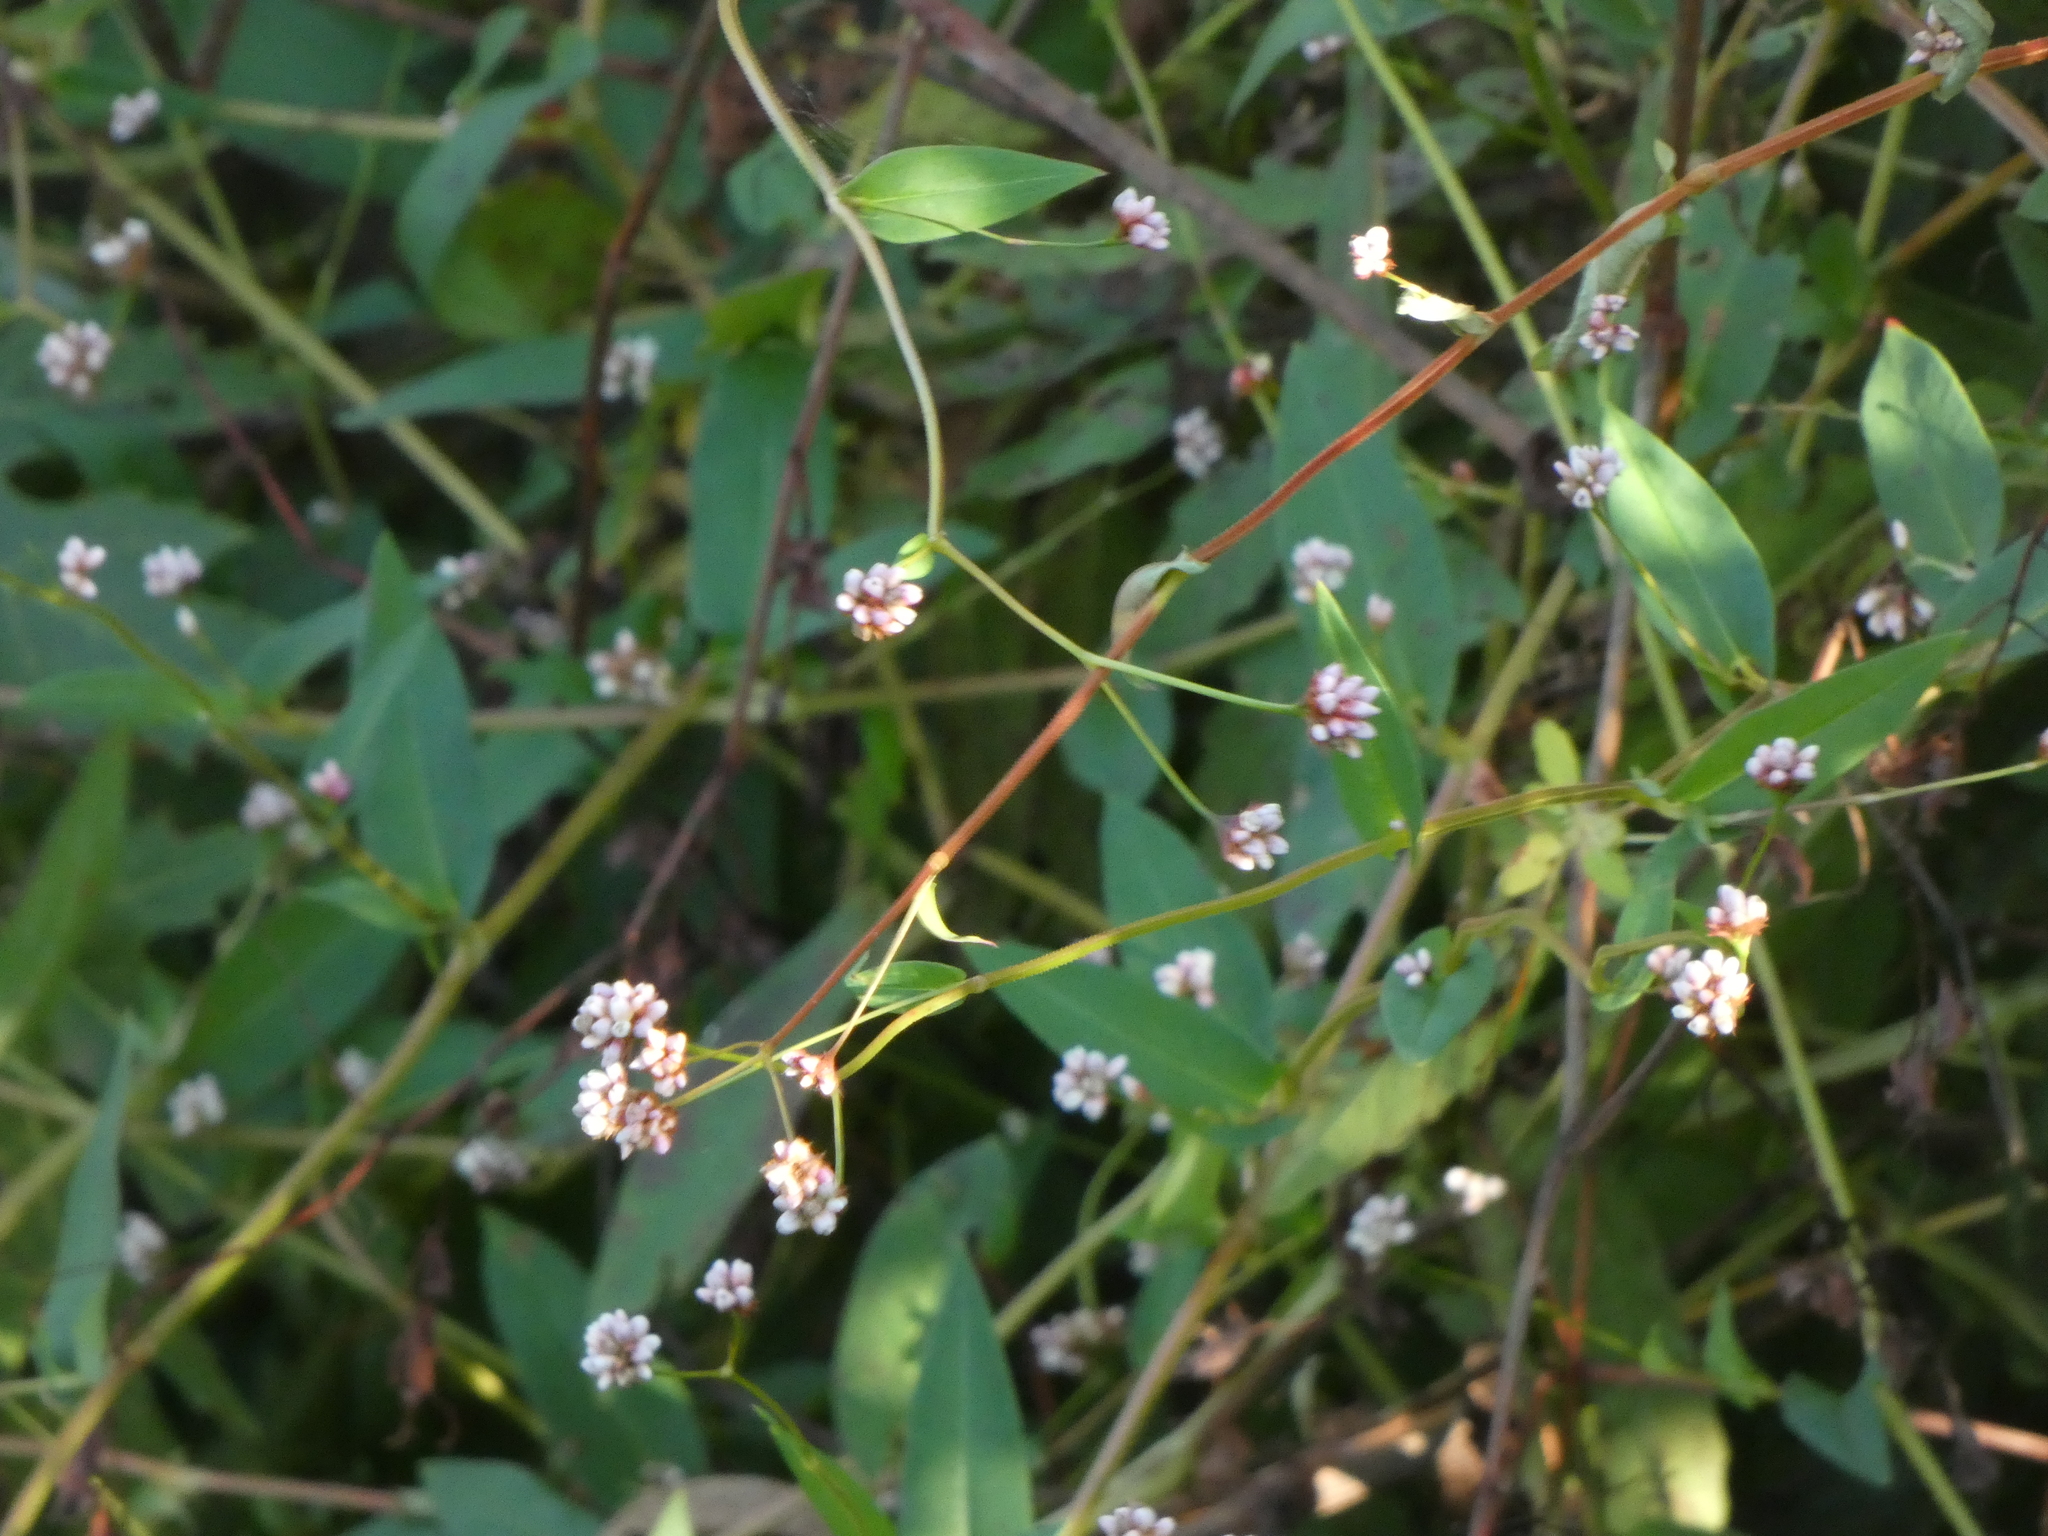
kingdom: Plantae
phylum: Tracheophyta
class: Magnoliopsida
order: Caryophyllales
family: Polygonaceae
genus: Persicaria
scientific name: Persicaria sagittata
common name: American tearthumb
